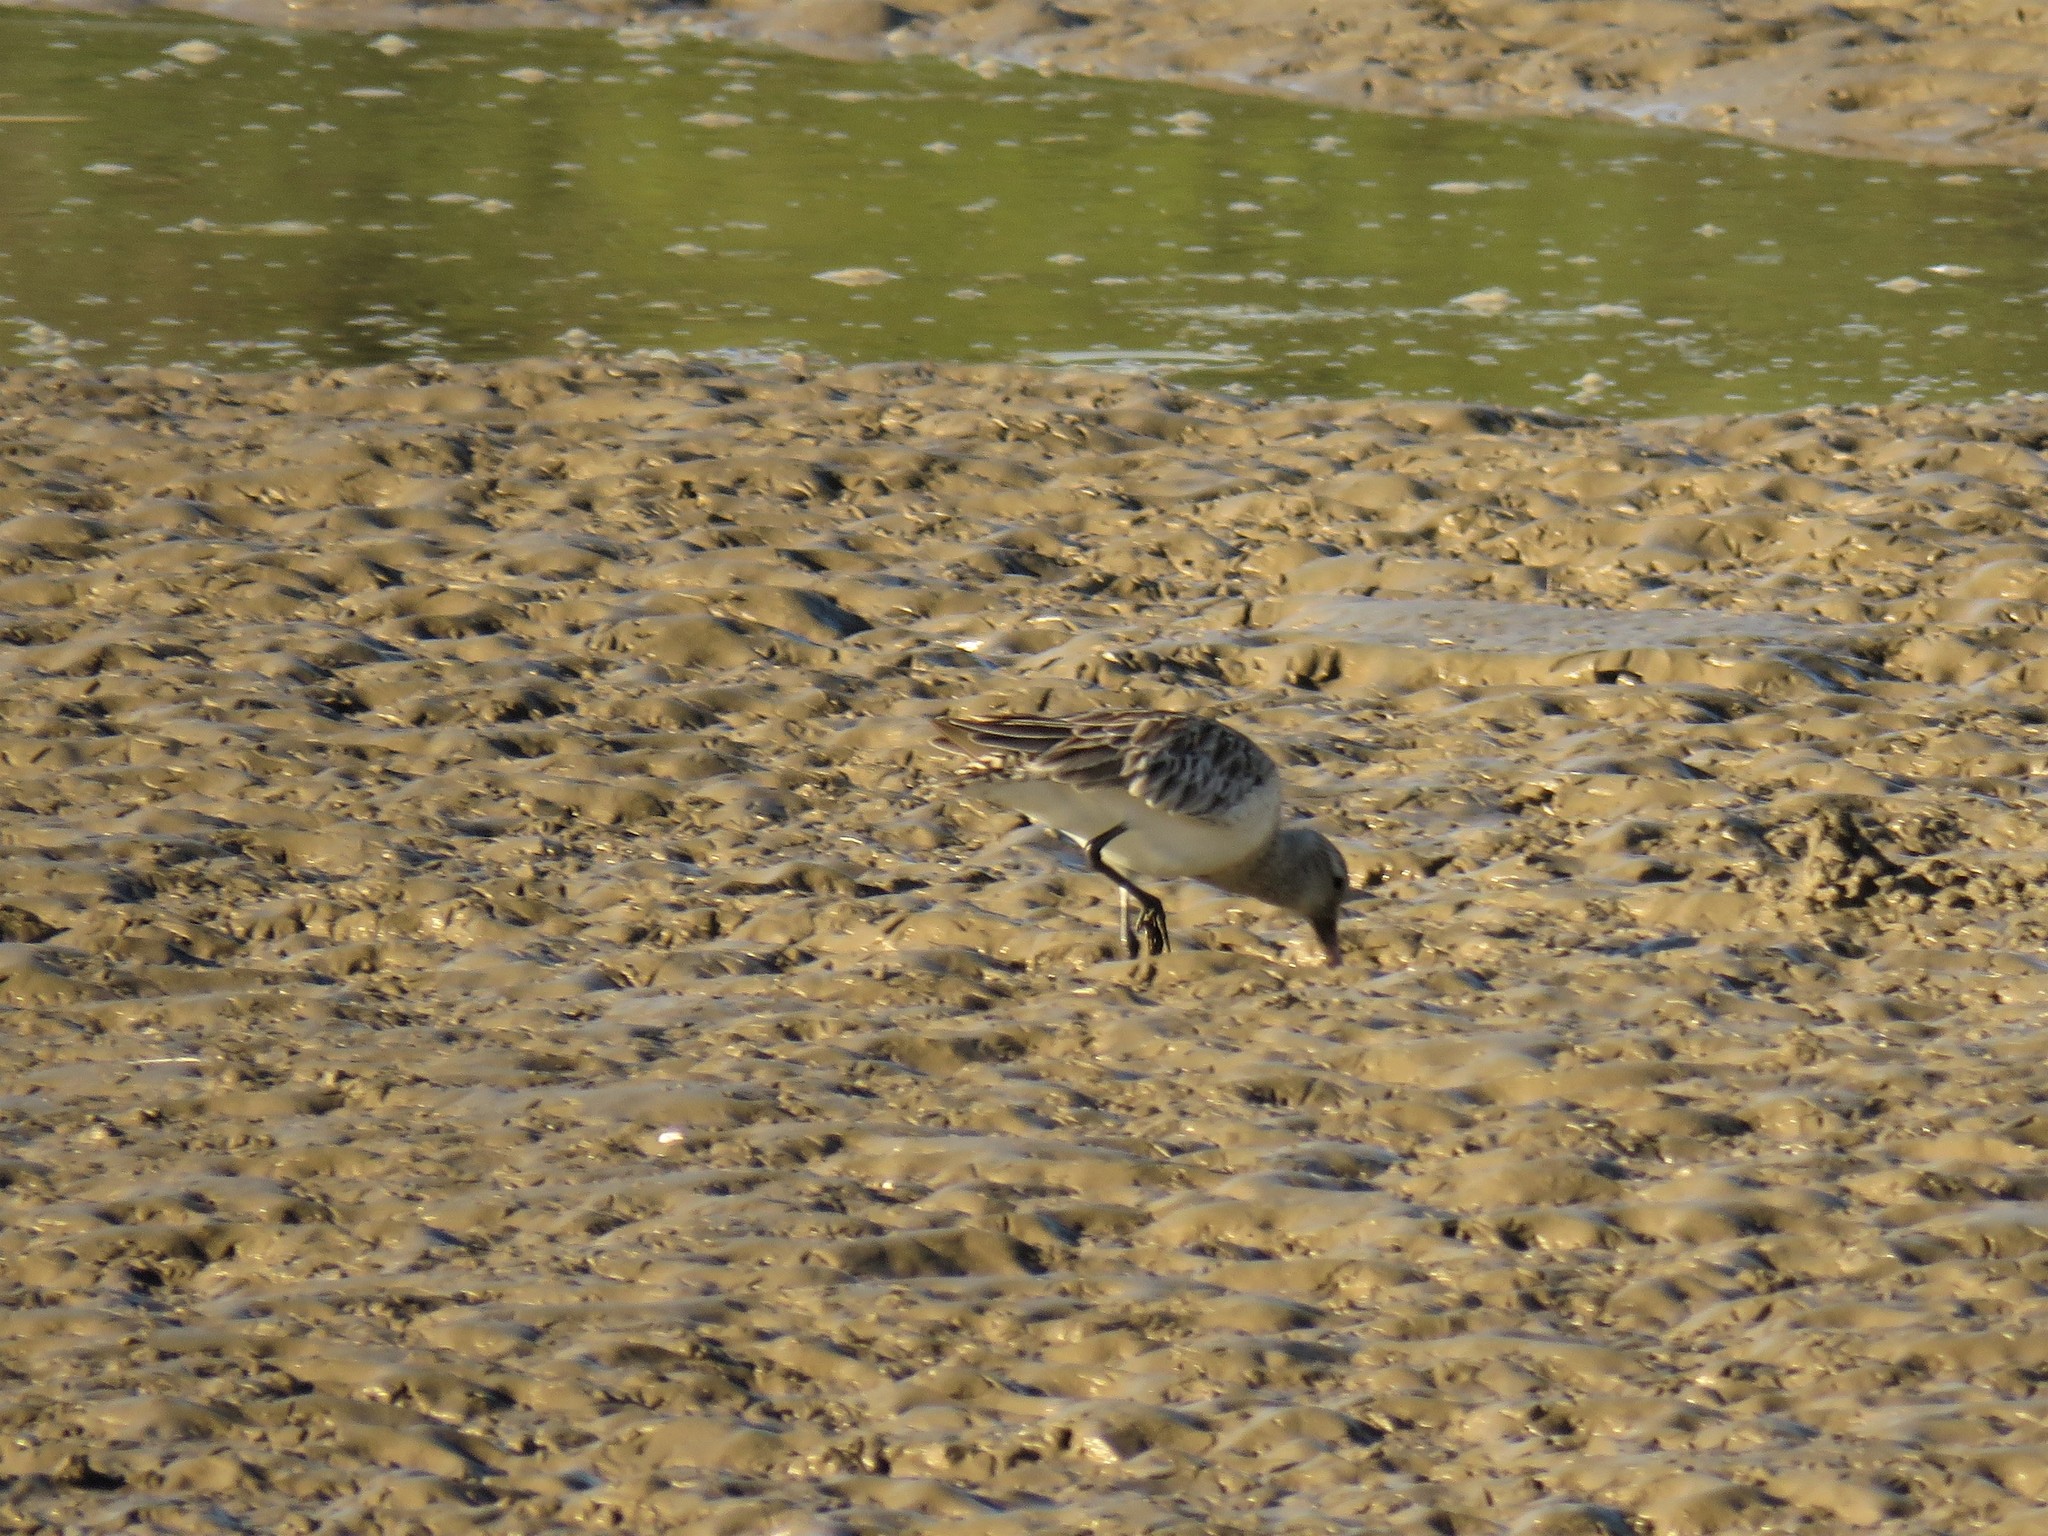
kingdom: Animalia
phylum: Chordata
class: Aves
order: Charadriiformes
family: Scolopacidae
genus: Limosa
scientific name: Limosa lapponica
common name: Bar-tailed godwit
